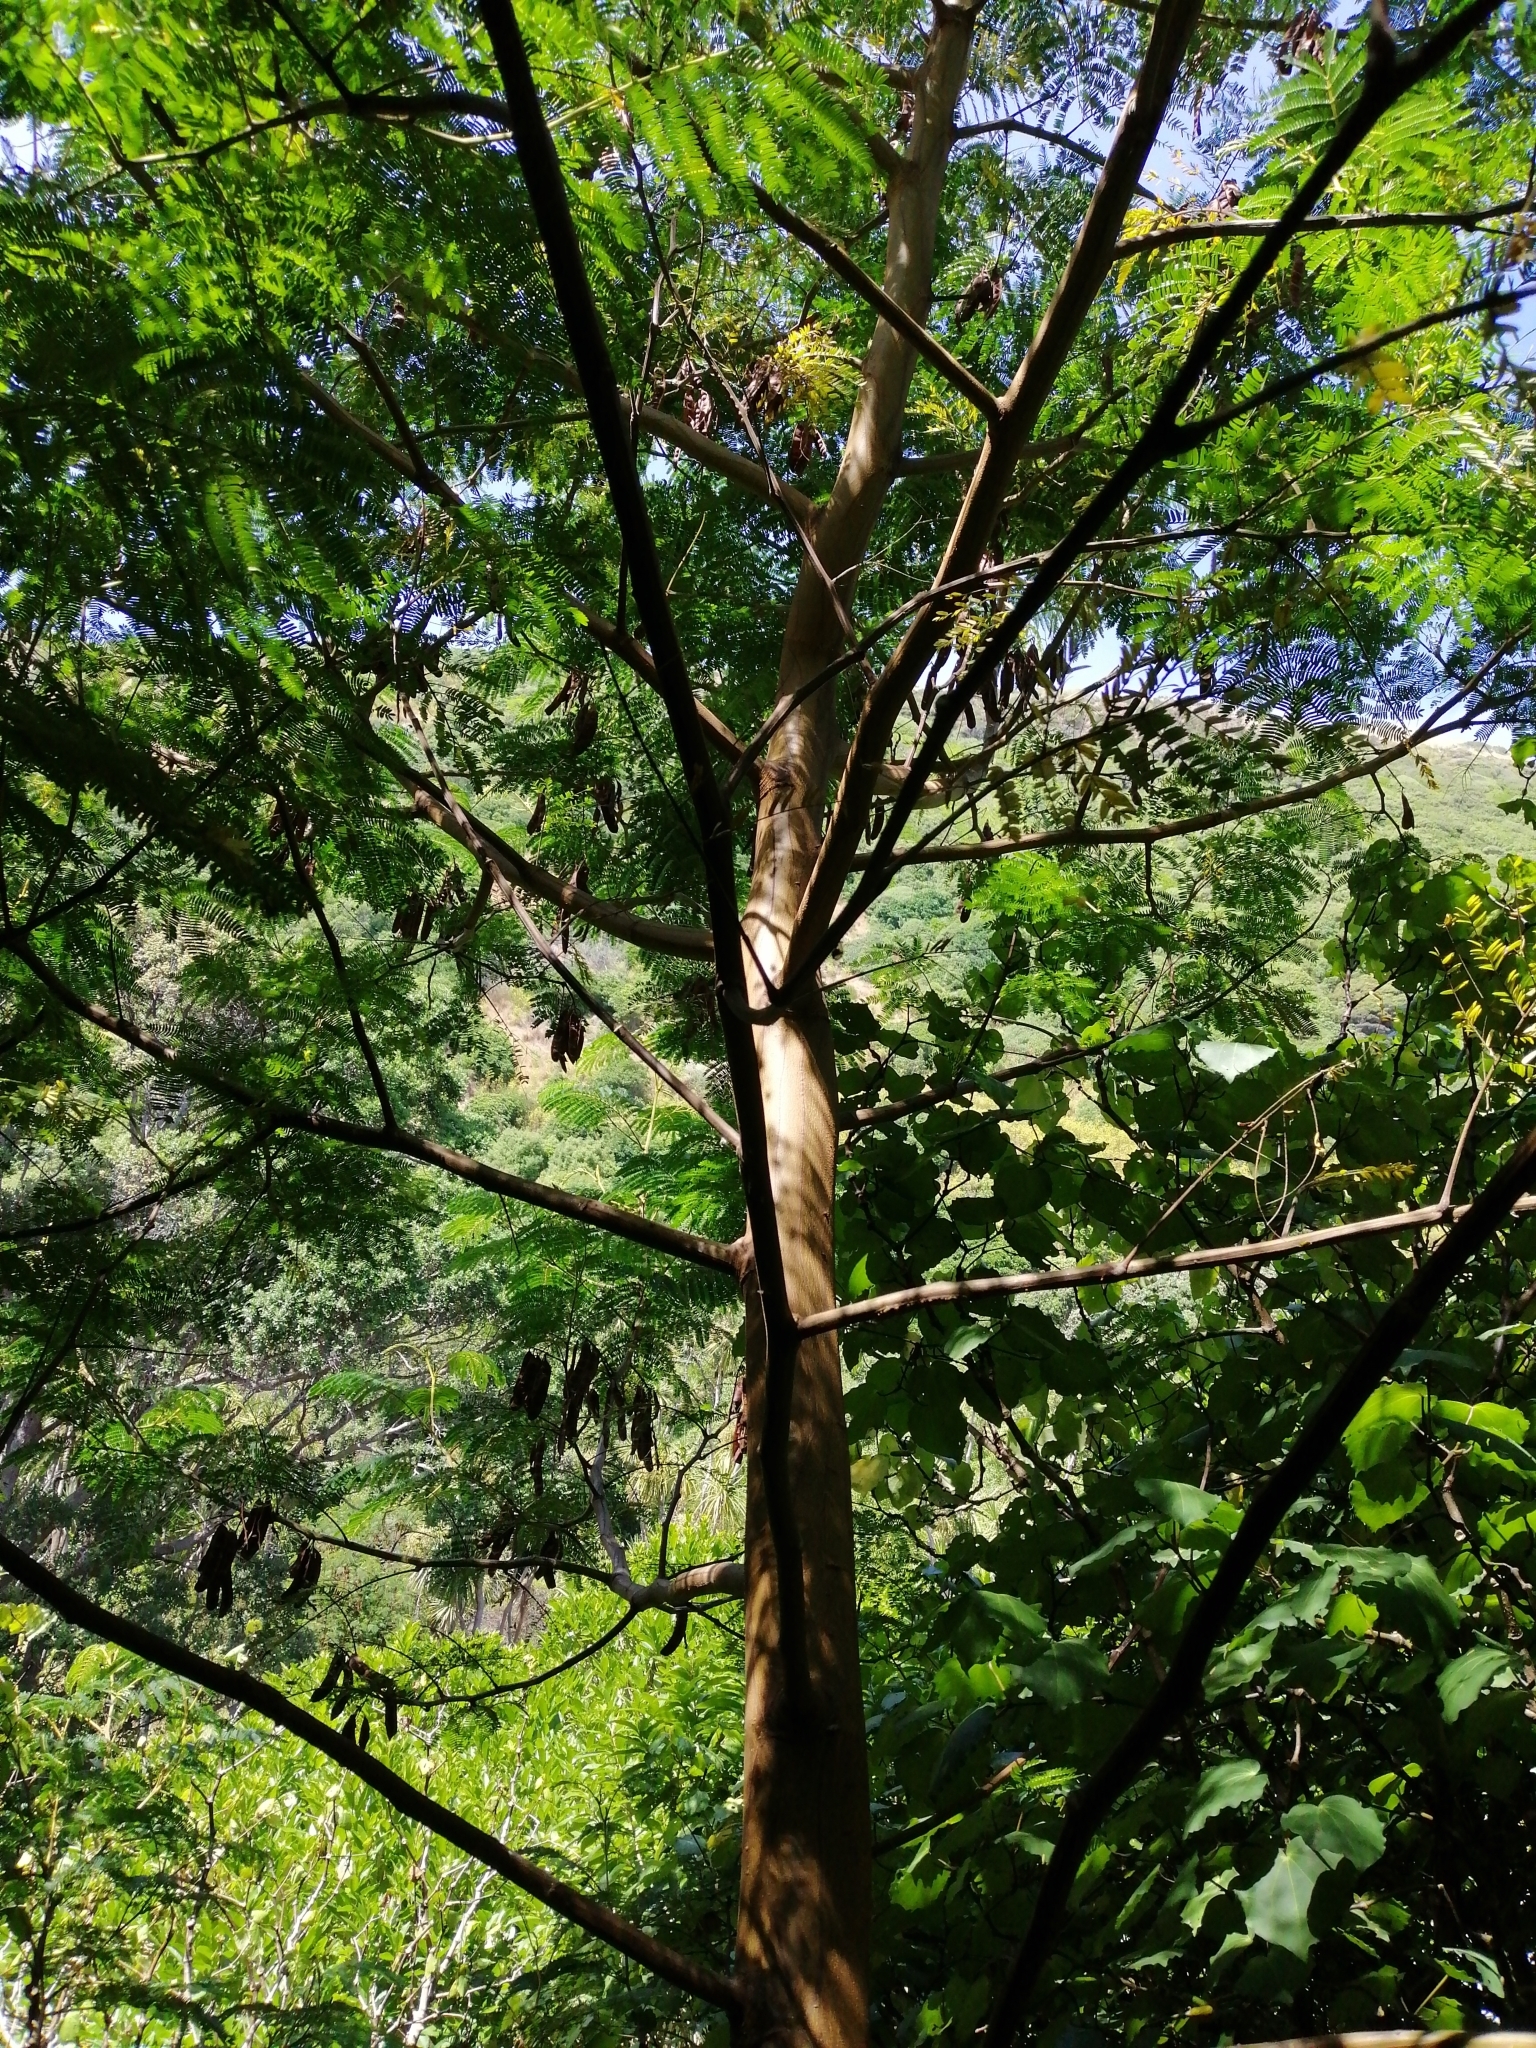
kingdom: Plantae
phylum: Tracheophyta
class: Magnoliopsida
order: Fabales
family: Fabaceae
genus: Paraserianthes
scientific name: Paraserianthes lophantha
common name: Plume albizia
